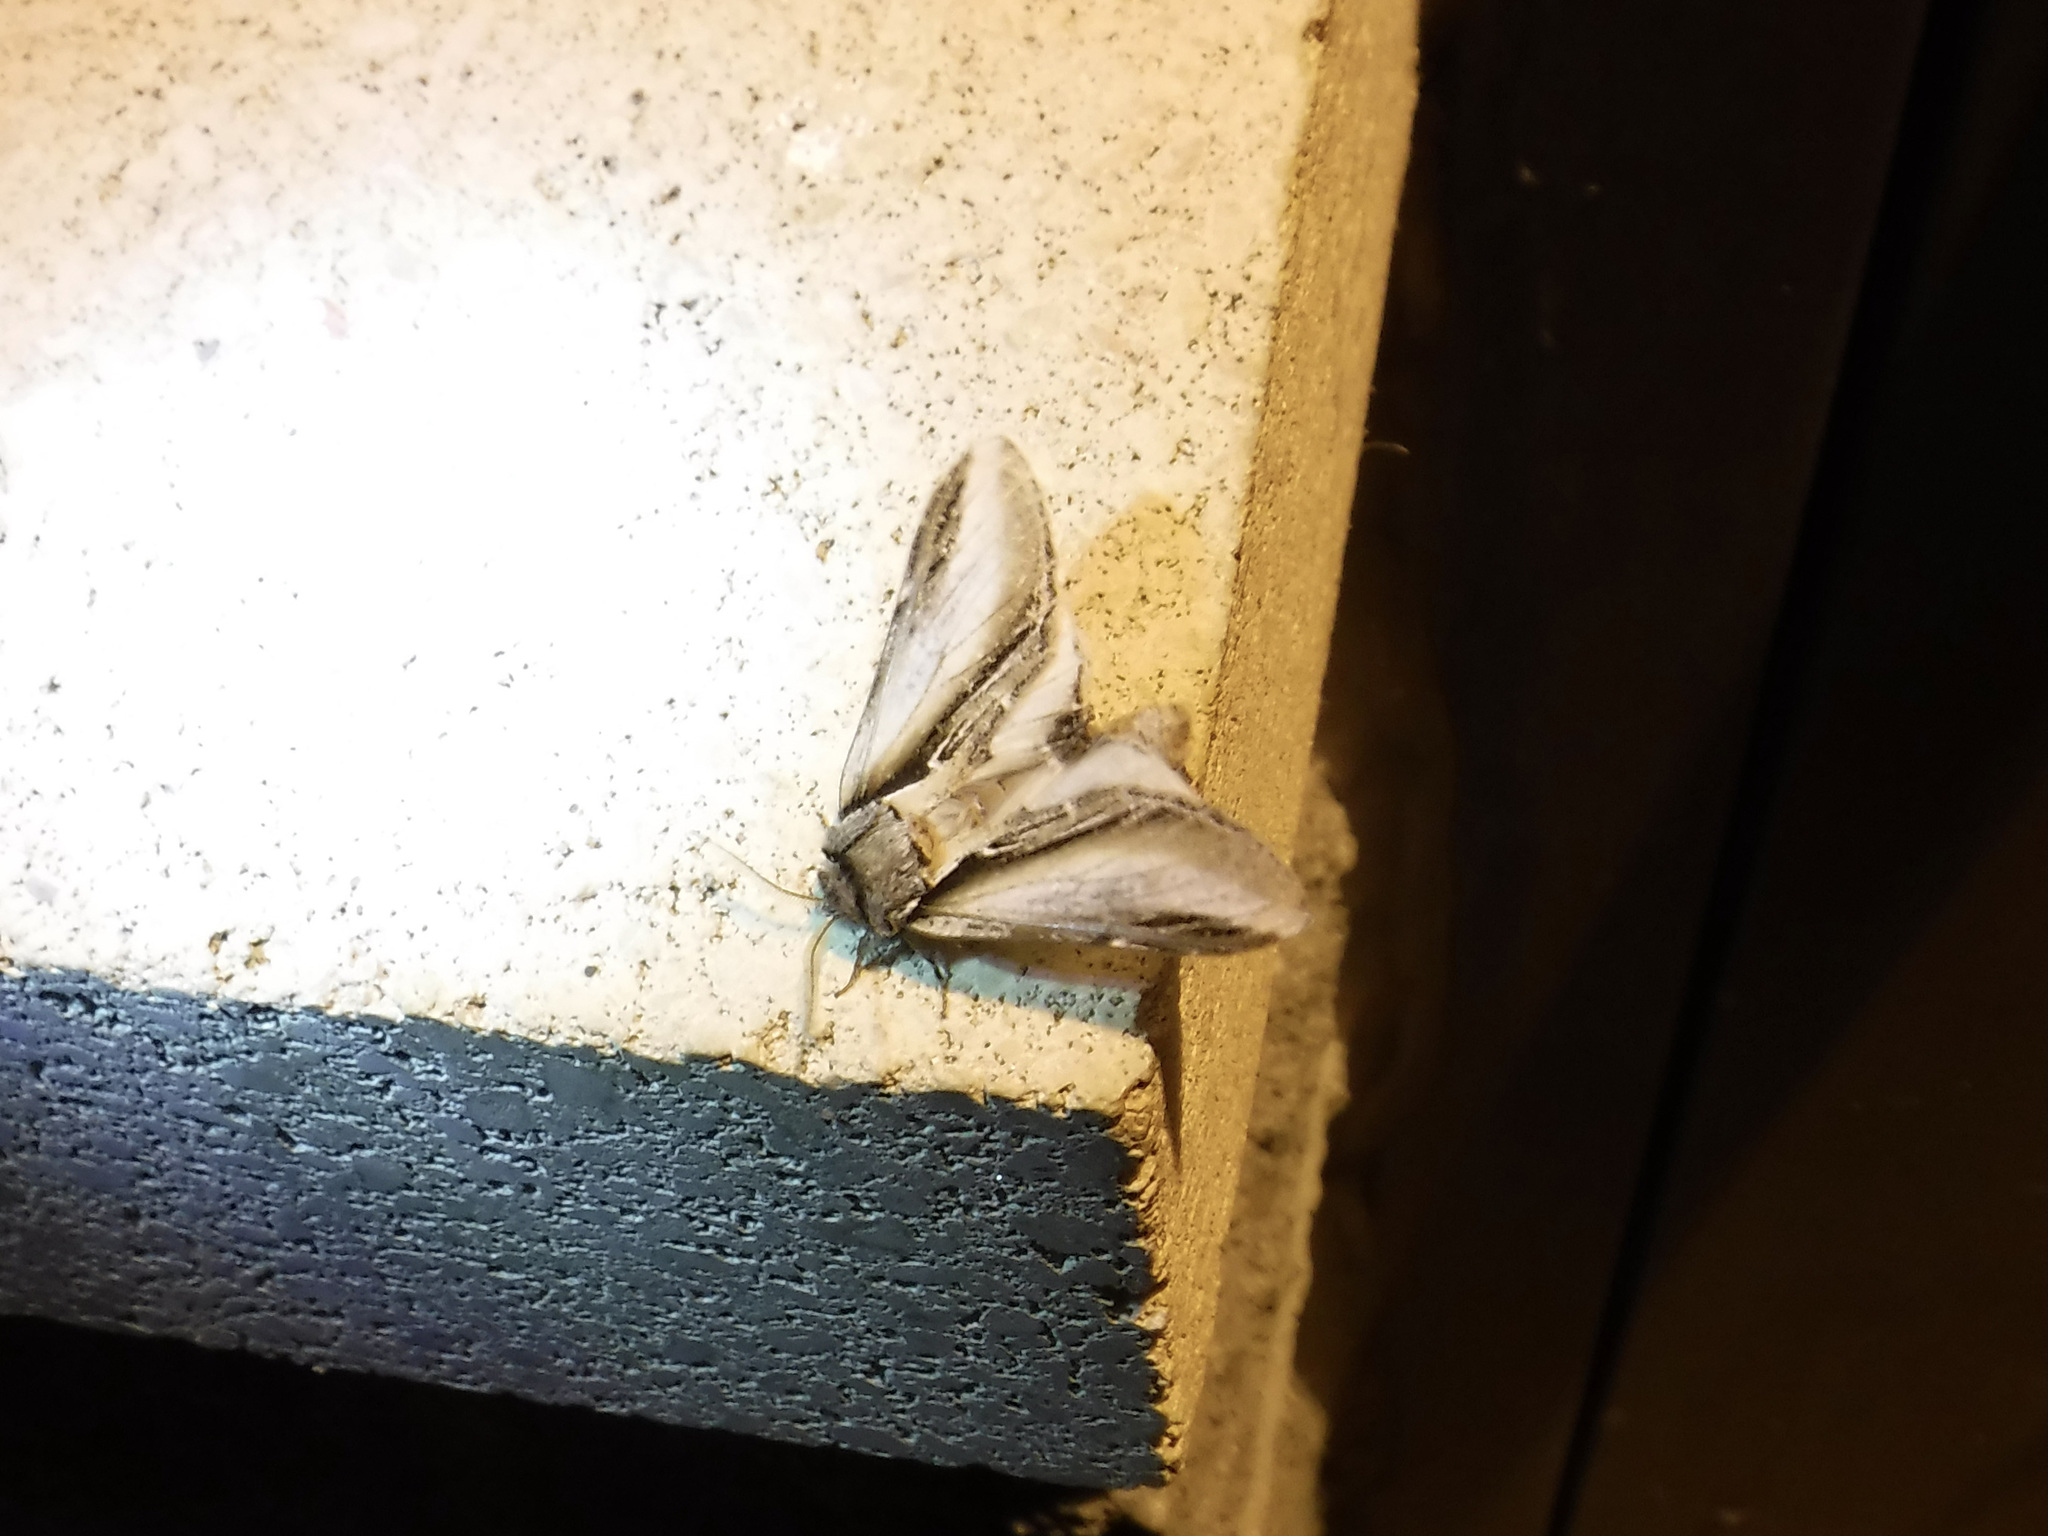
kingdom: Animalia
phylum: Arthropoda
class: Insecta
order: Lepidoptera
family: Notodontidae
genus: Pheosia
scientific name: Pheosia rimosa
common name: Black-rimmed prominent
